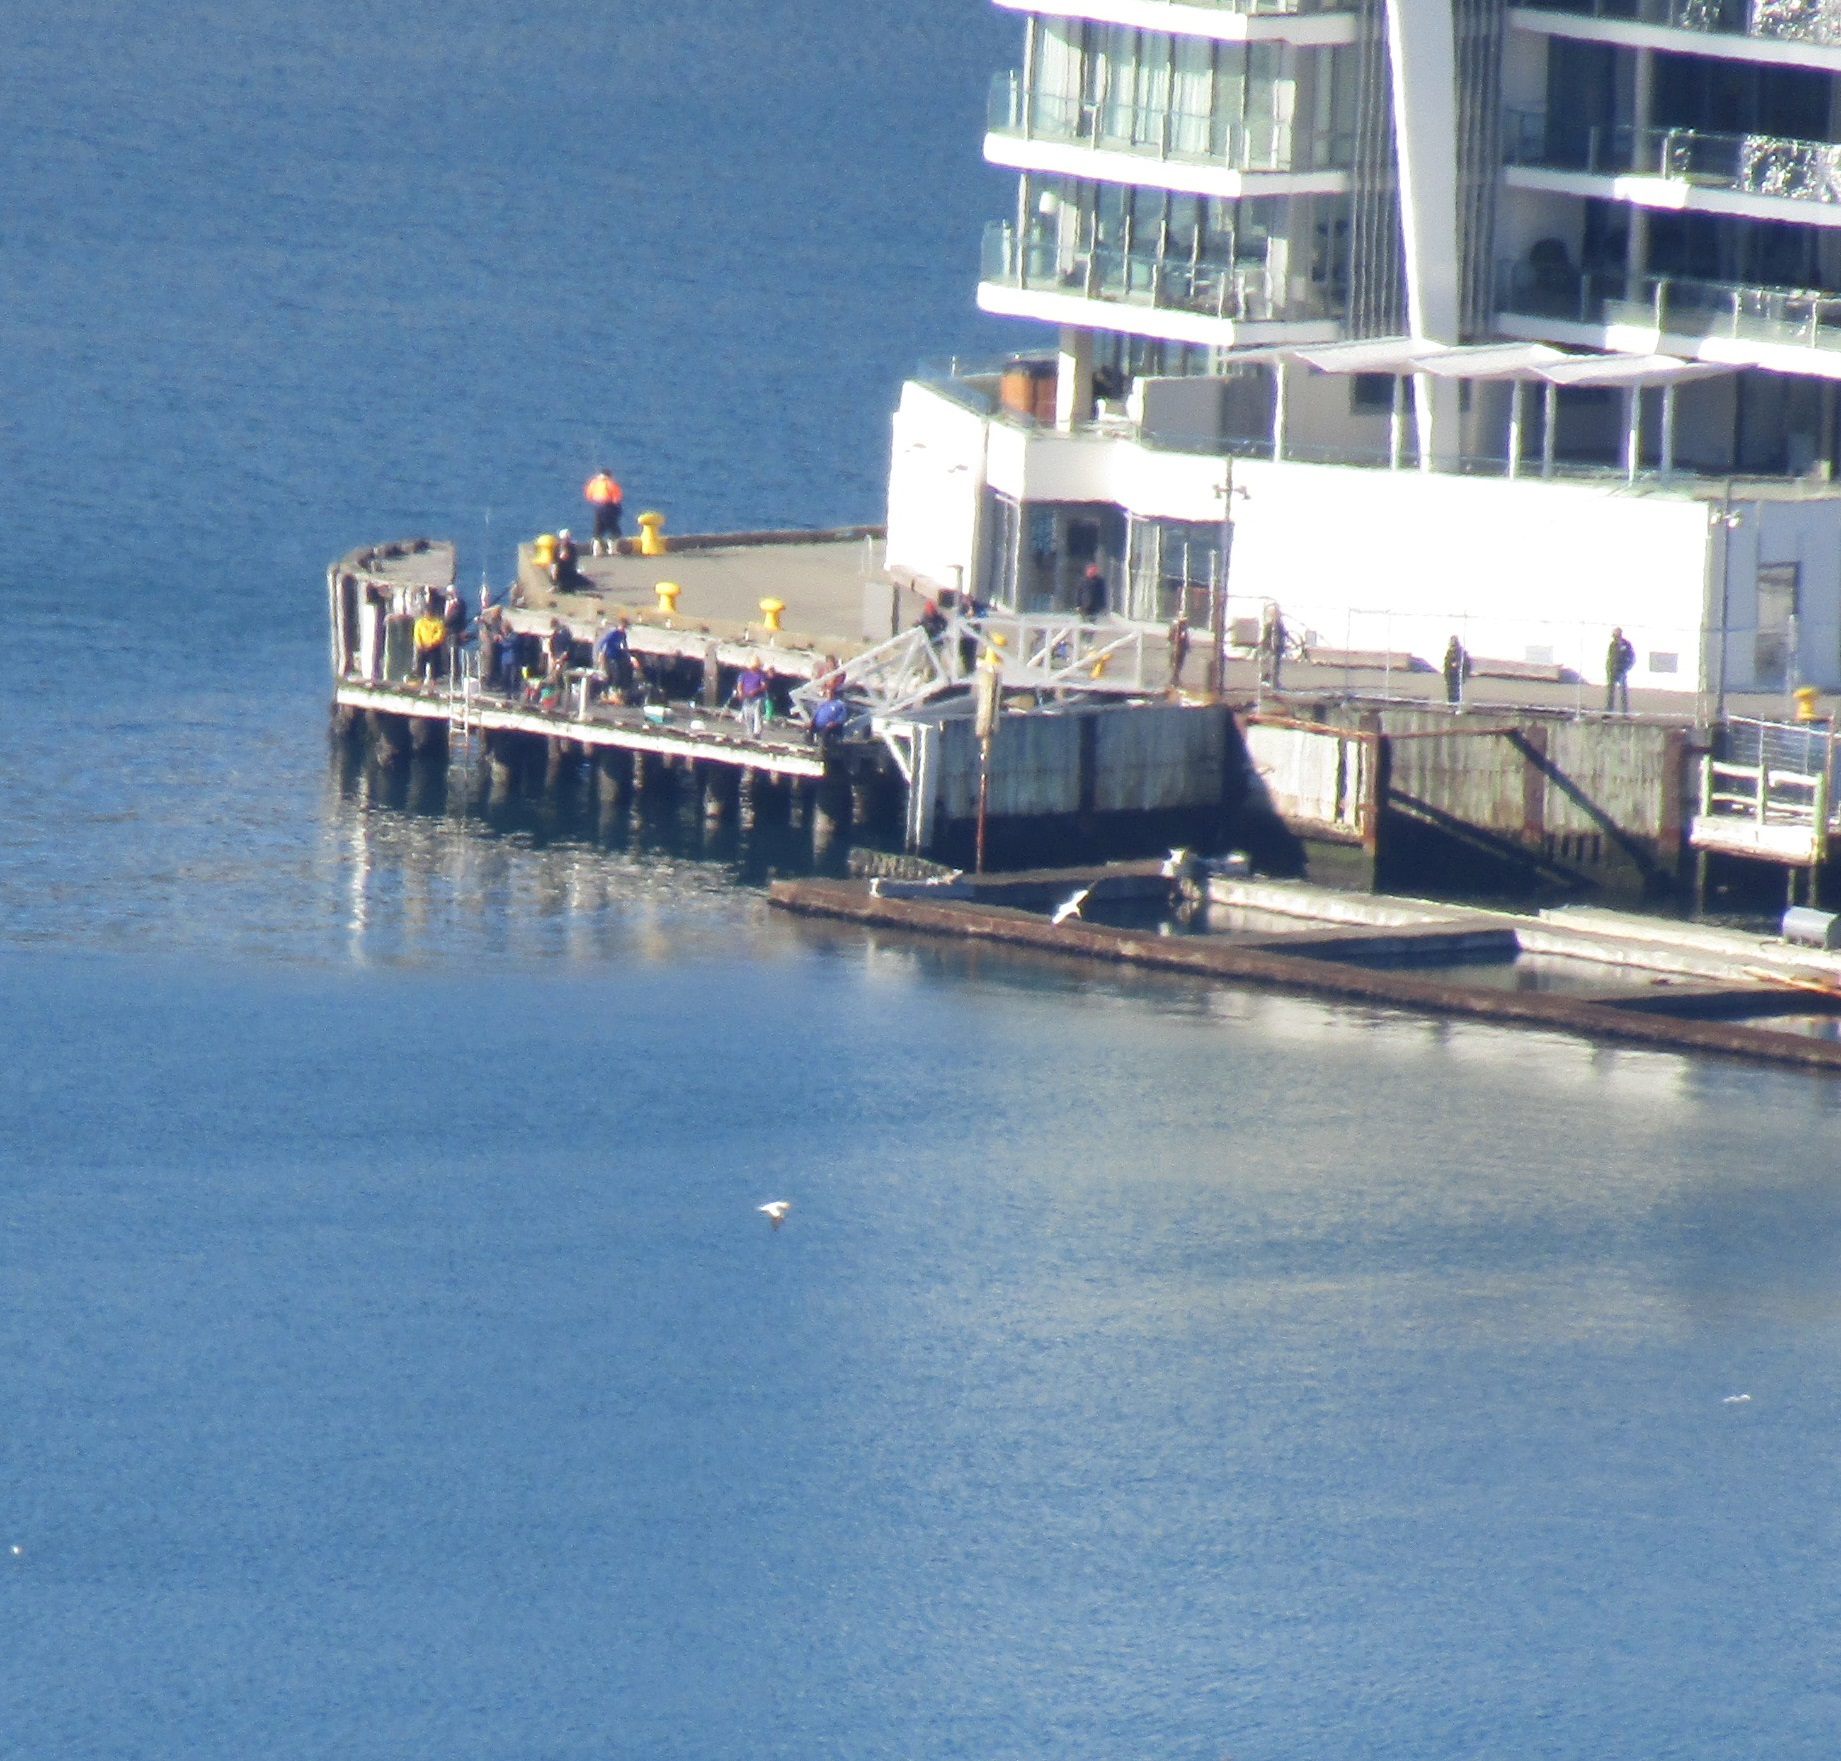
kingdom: Animalia
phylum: Chordata
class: Aves
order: Suliformes
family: Sulidae
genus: Morus
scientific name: Morus serrator
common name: Australasian gannet
